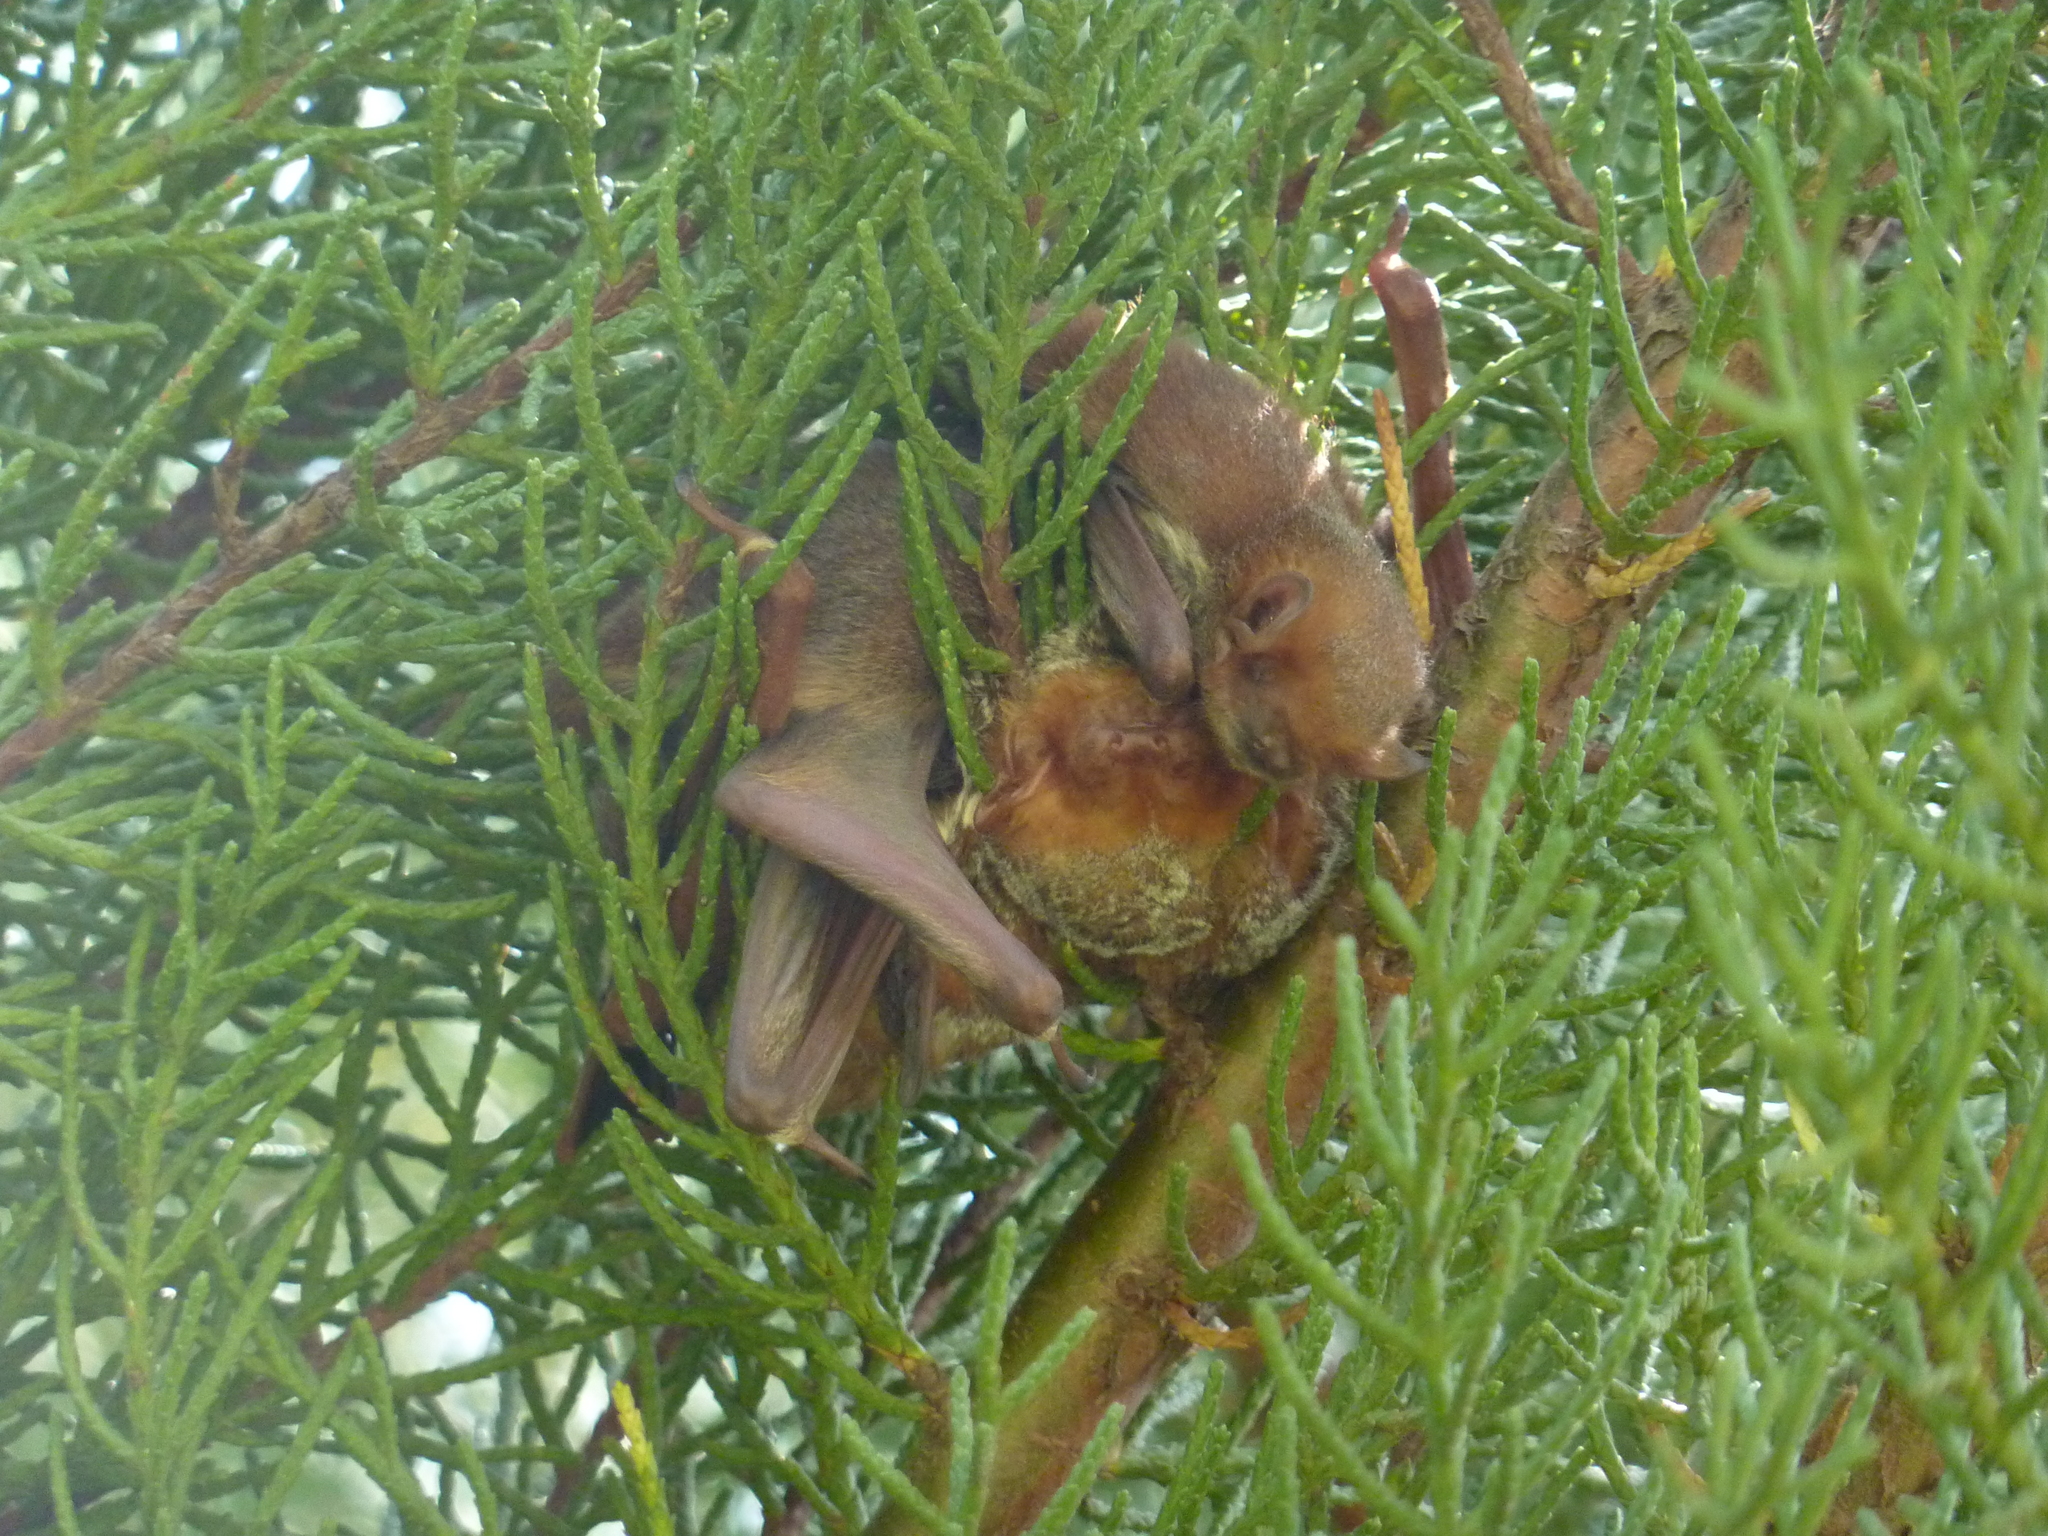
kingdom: Animalia
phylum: Chordata
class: Mammalia
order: Chiroptera
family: Vespertilionidae
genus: Lasiurus
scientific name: Lasiurus blossevillii
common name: Southern red bat
